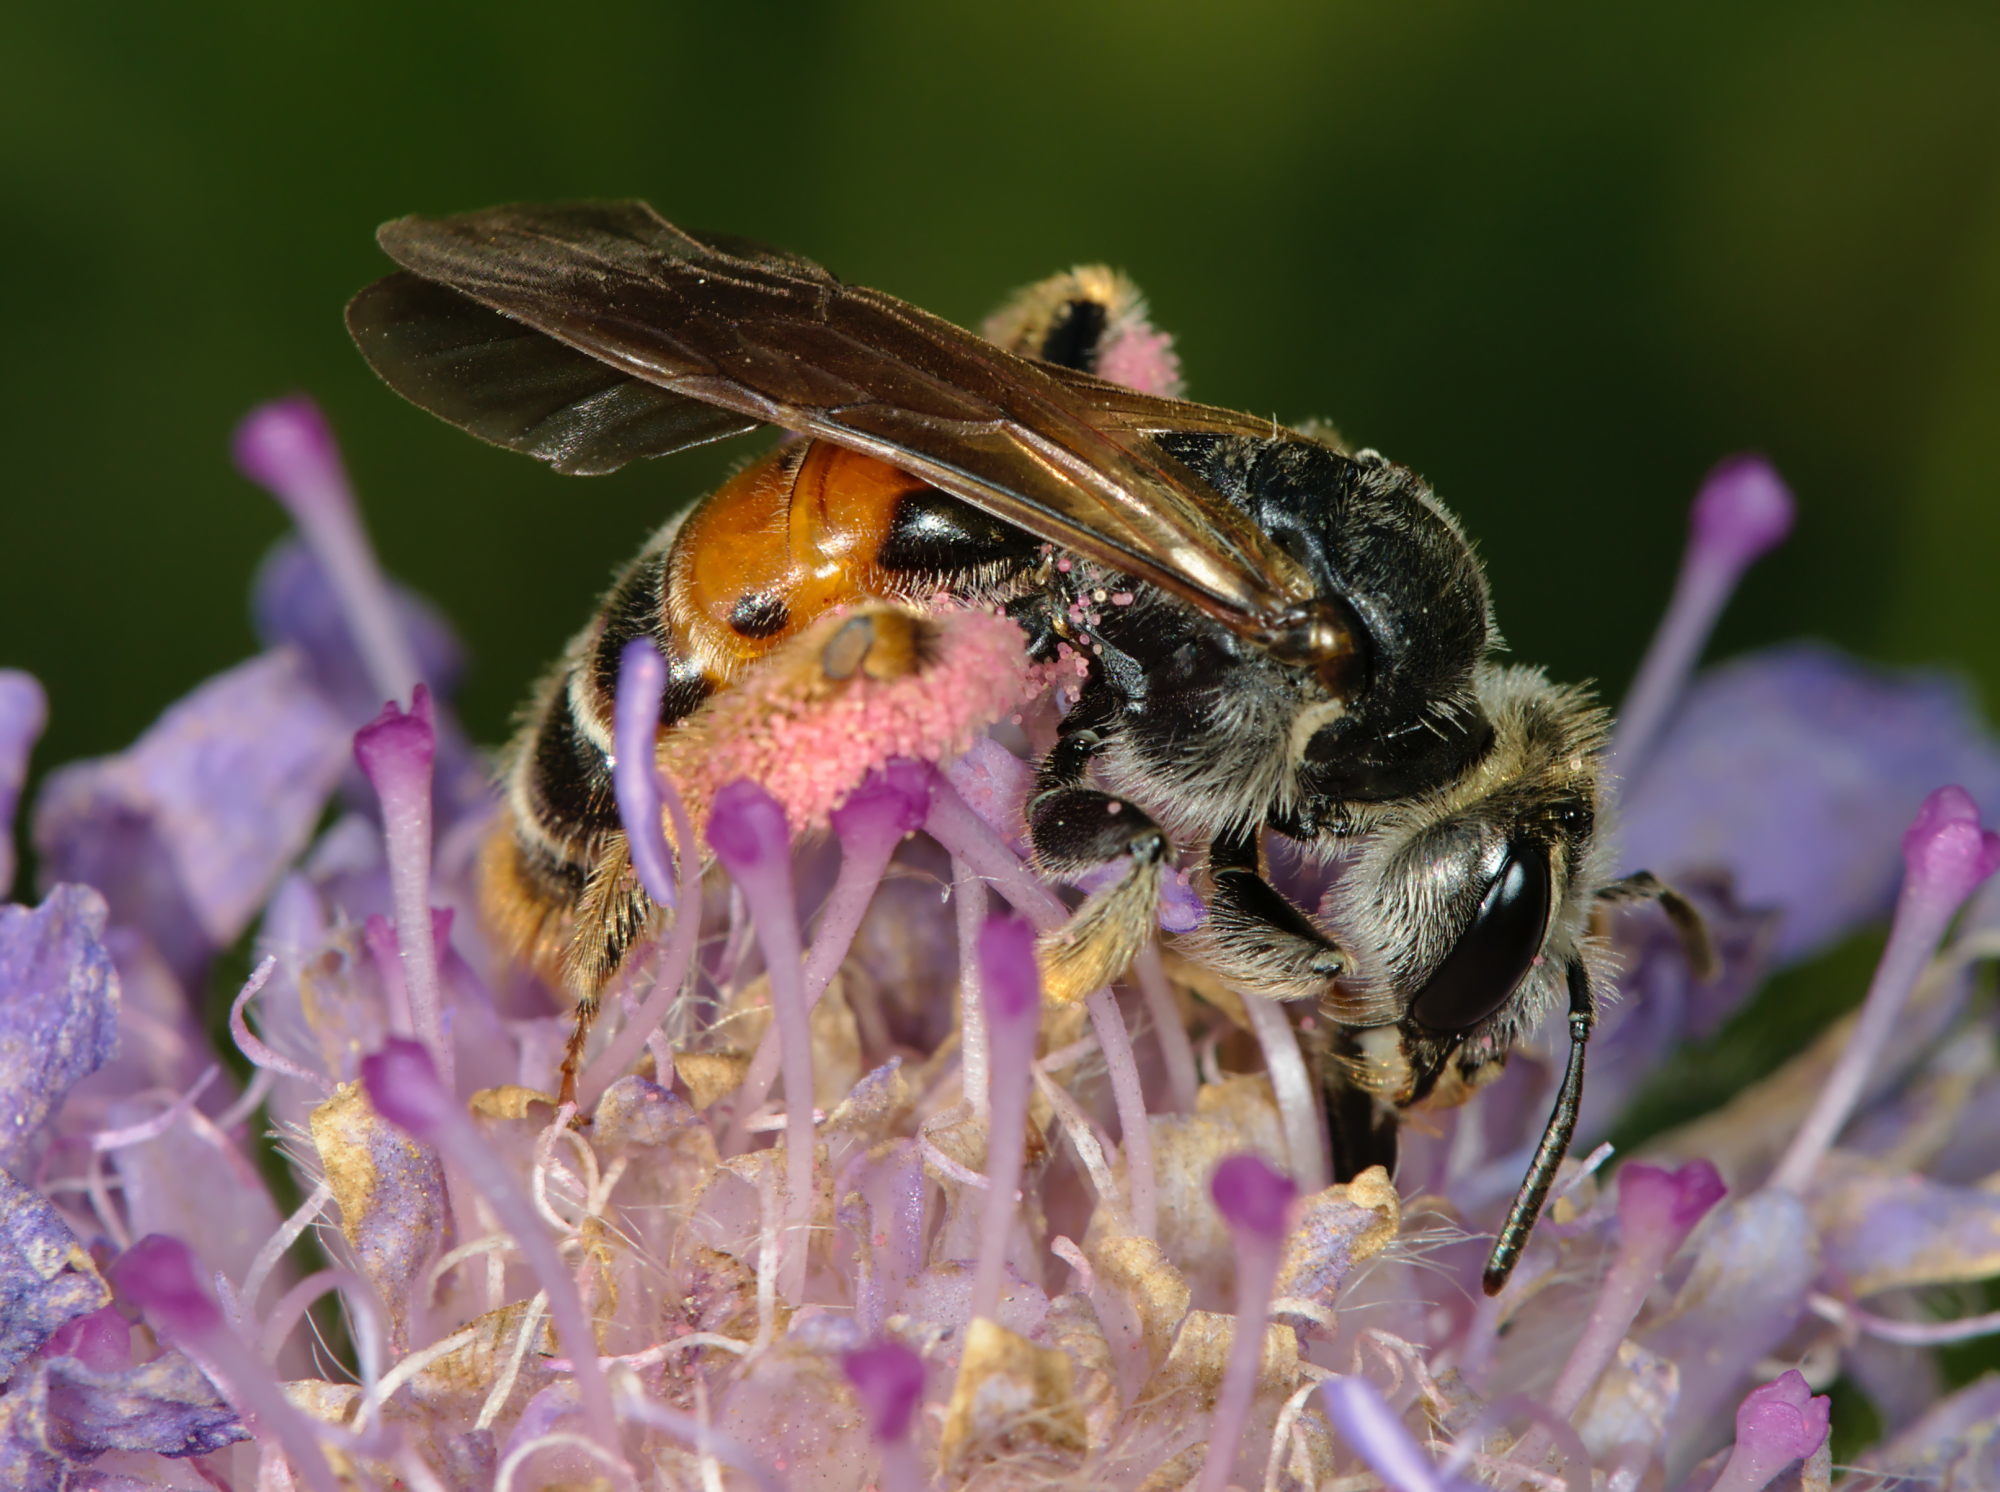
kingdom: Animalia
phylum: Arthropoda
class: Insecta
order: Hymenoptera
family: Andrenidae
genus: Andrena
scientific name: Andrena hattorfiana
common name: Large scabious mining bee
